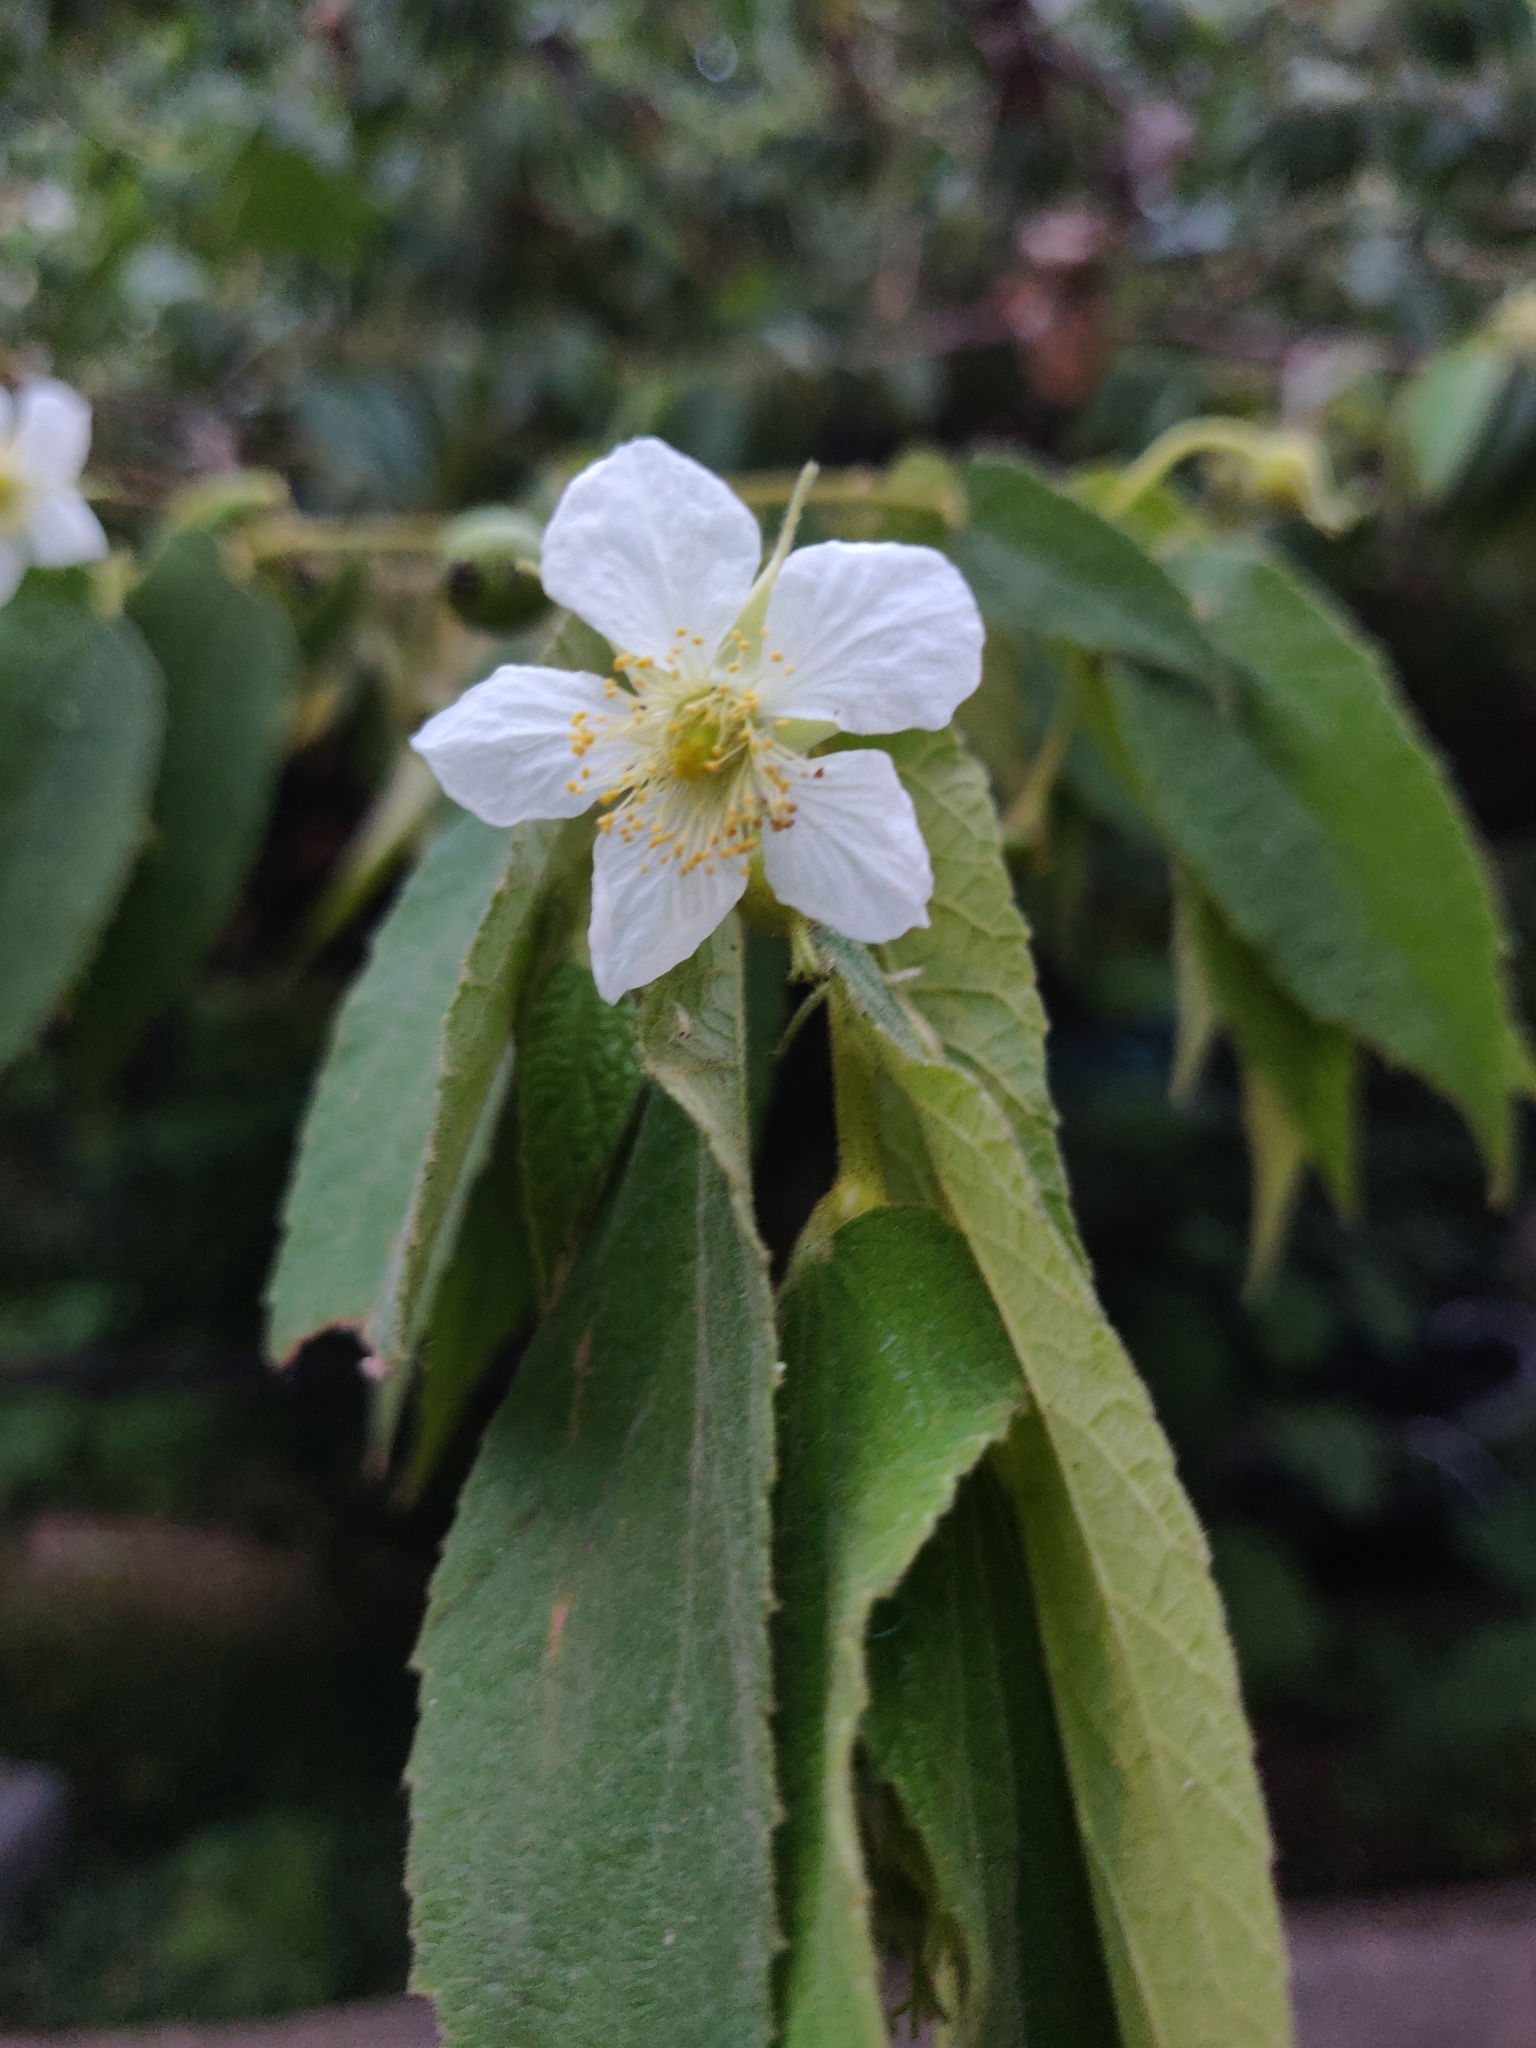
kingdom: Plantae
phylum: Tracheophyta
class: Magnoliopsida
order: Malvales
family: Muntingiaceae
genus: Muntingia
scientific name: Muntingia calabura
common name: Strawberrytree
